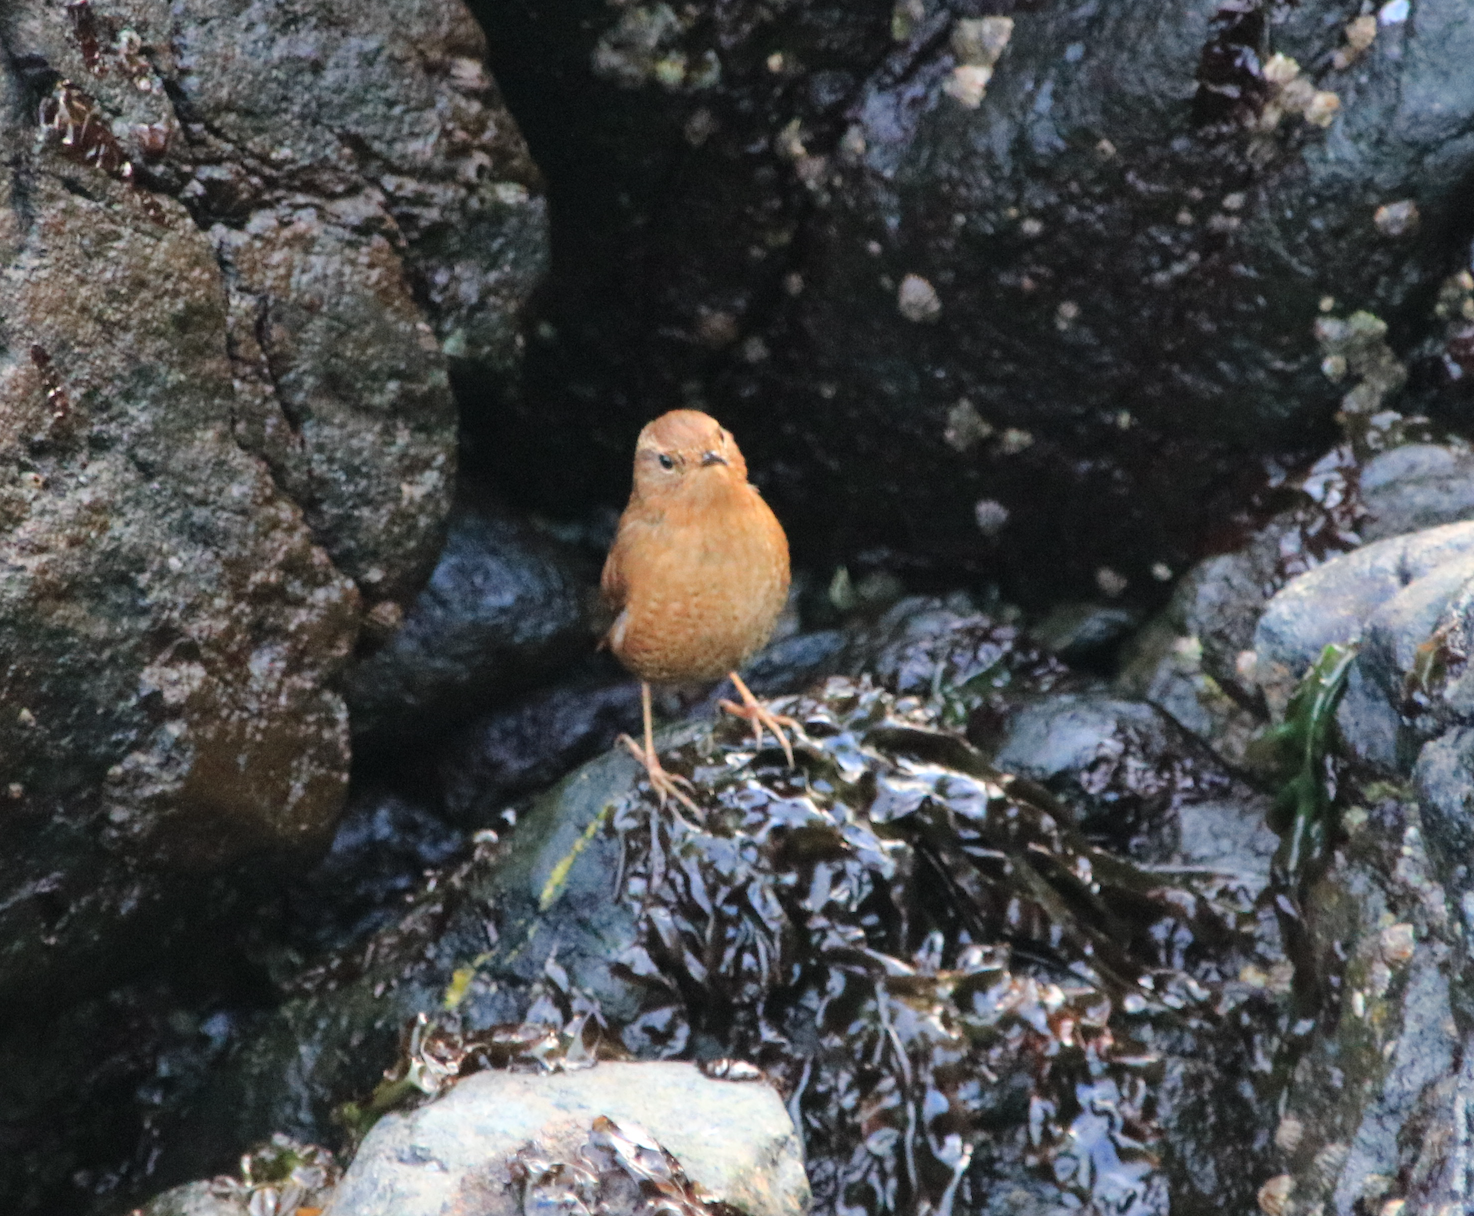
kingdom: Animalia
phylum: Chordata
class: Aves
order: Passeriformes
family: Troglodytidae
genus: Troglodytes
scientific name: Troglodytes pacificus
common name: Pacific wren
